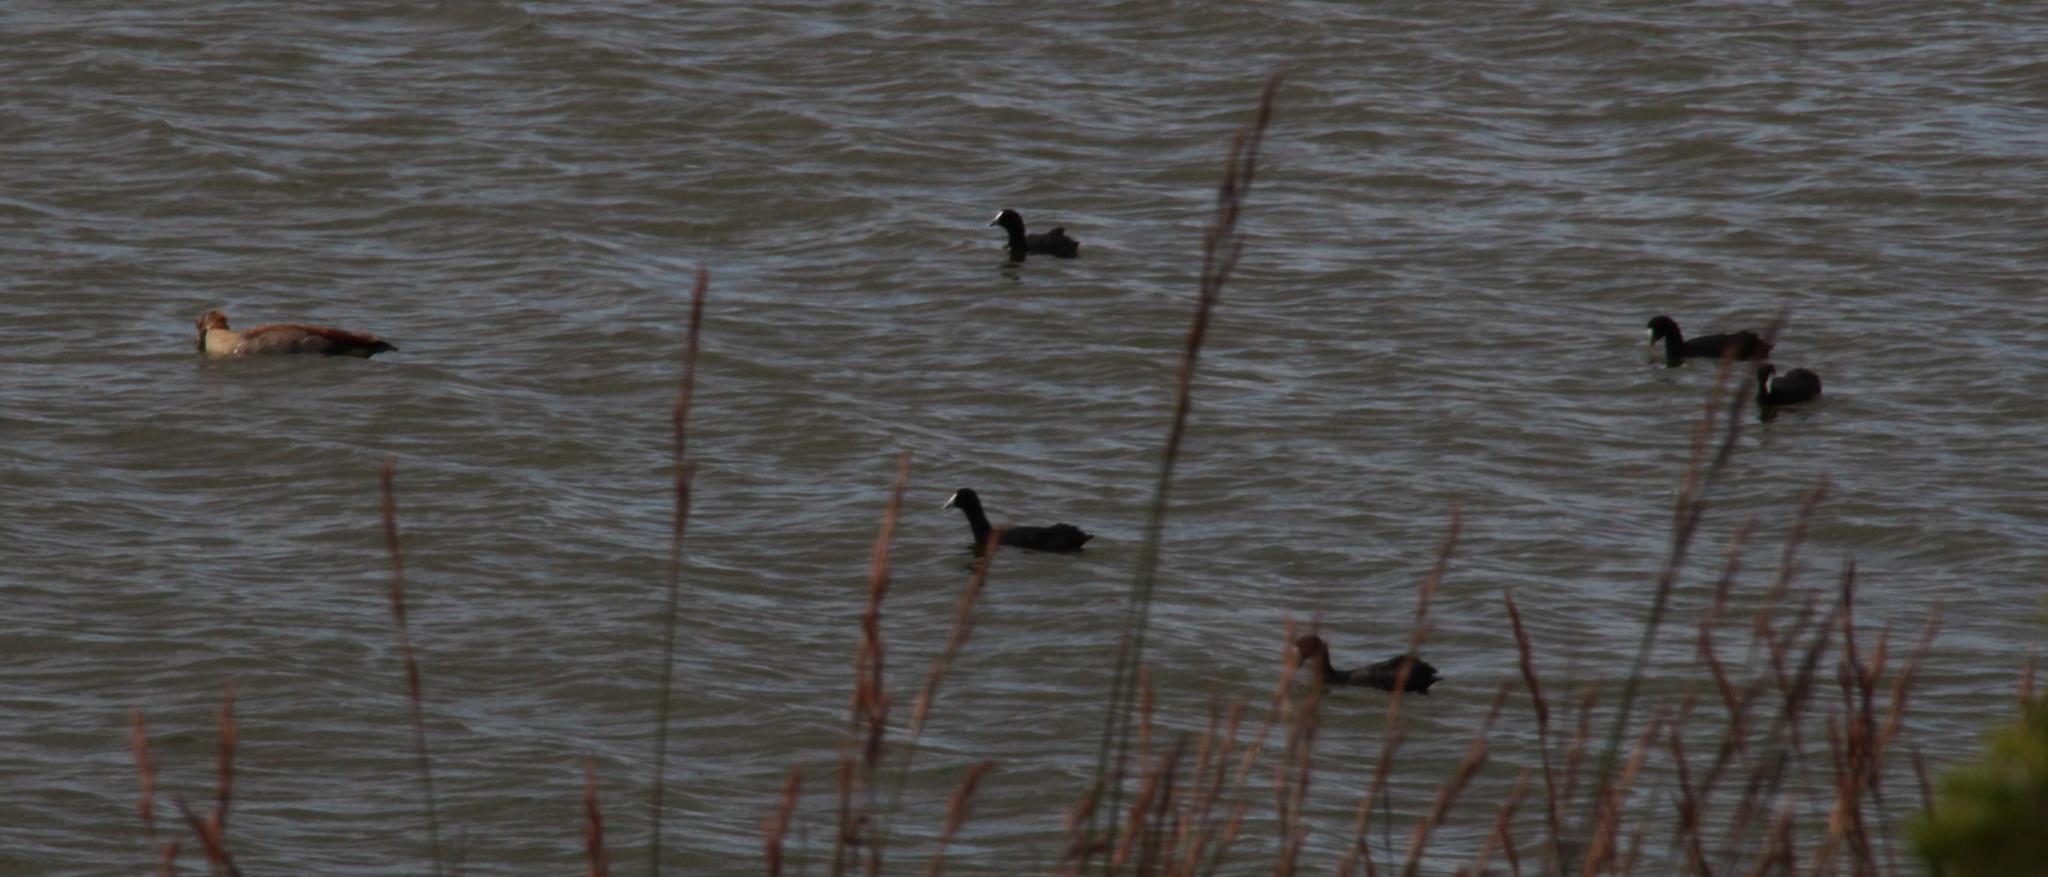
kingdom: Animalia
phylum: Chordata
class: Aves
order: Gruiformes
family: Rallidae
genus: Fulica
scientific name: Fulica cristata
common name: Red-knobbed coot
